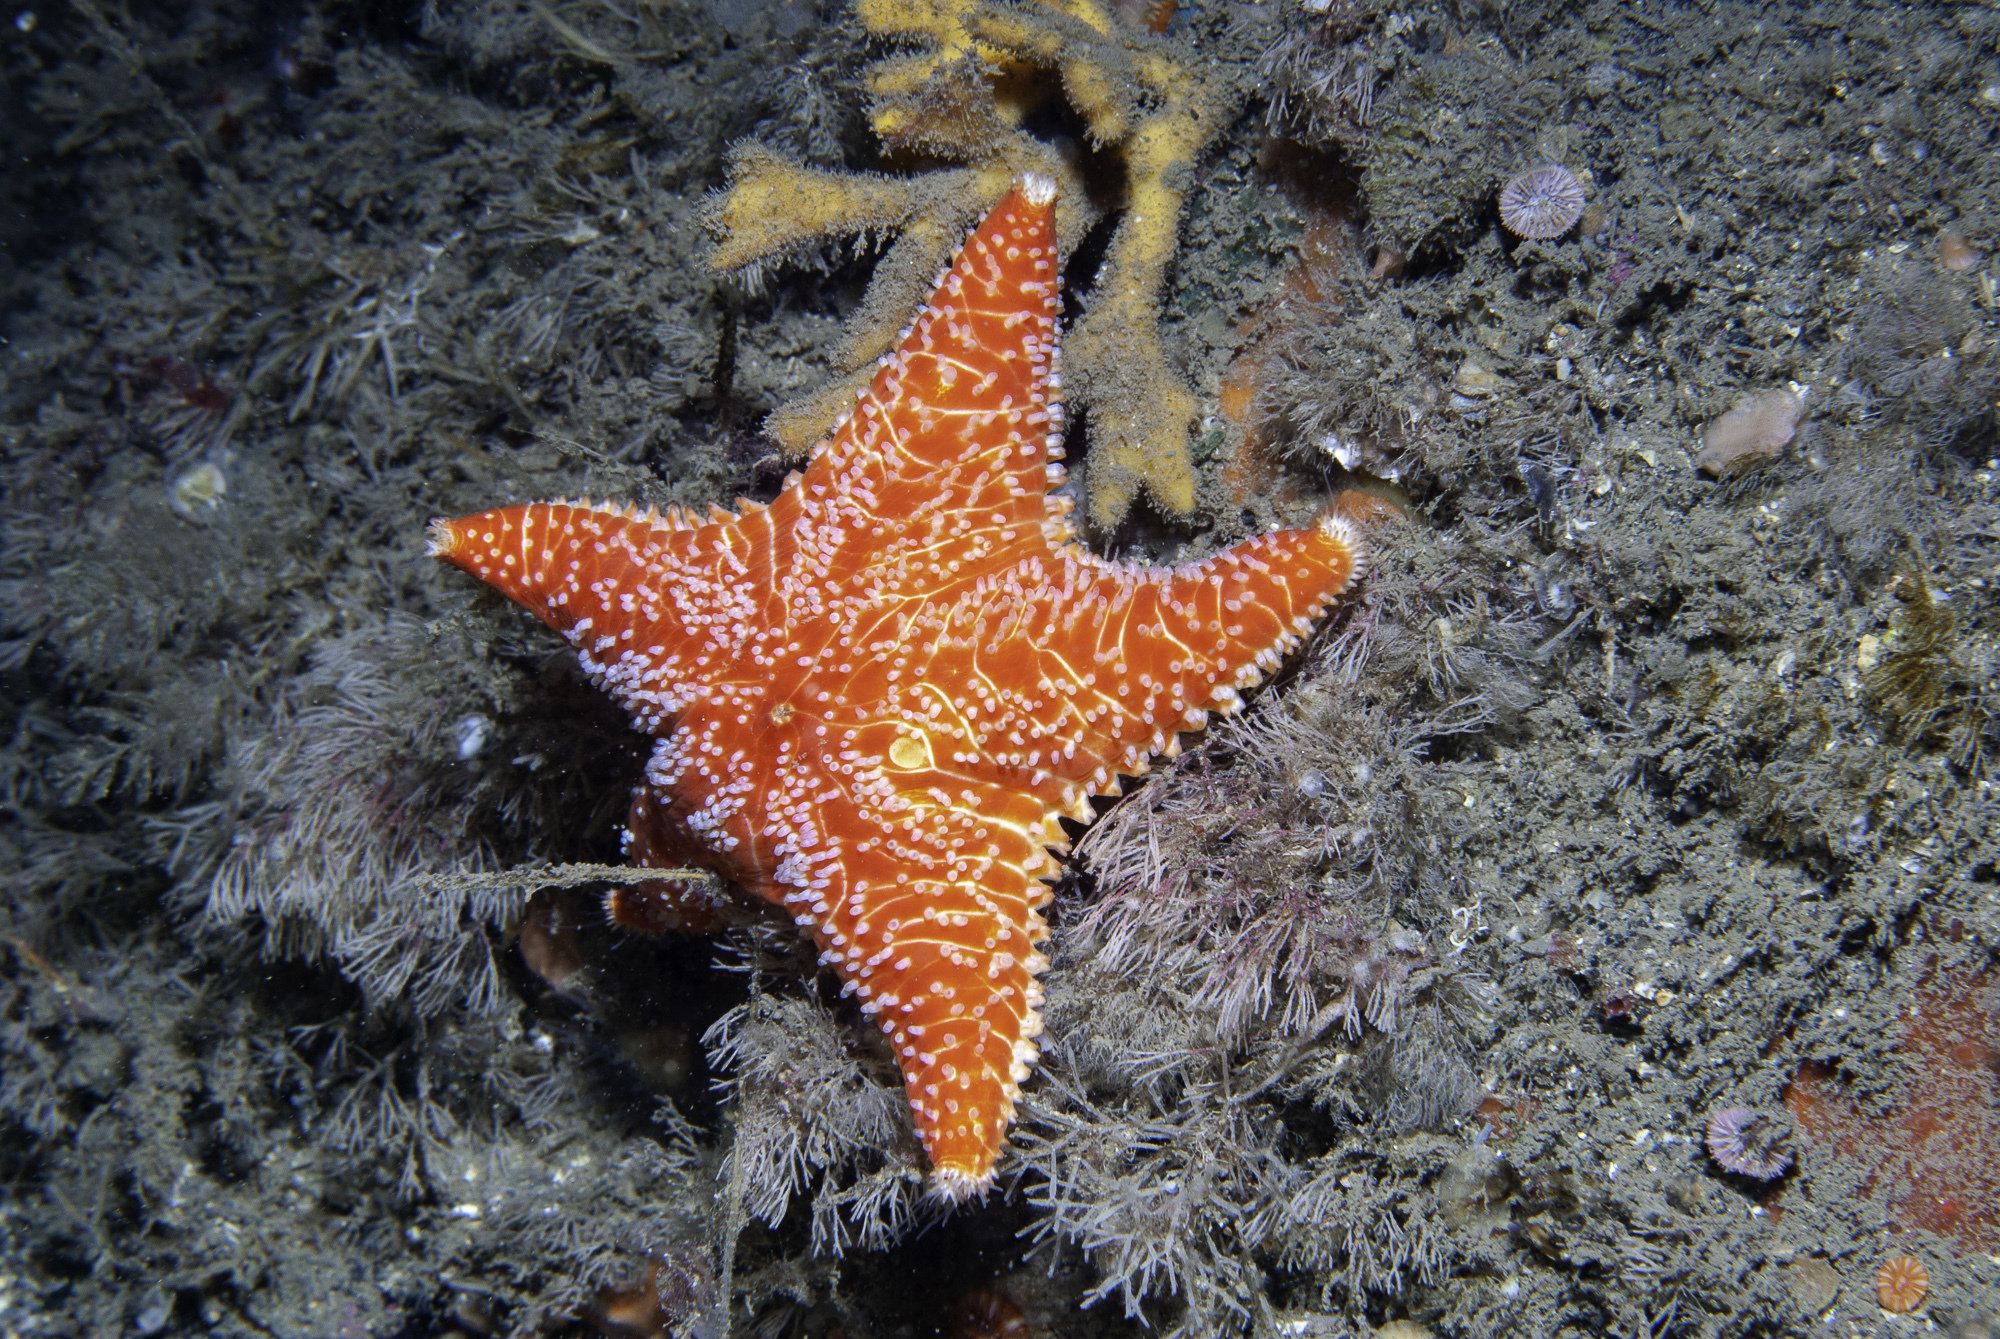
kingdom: Animalia
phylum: Echinodermata
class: Asteroidea
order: Valvatida
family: Poraniidae
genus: Porania
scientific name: Porania pulvillus
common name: Red cushion stat
